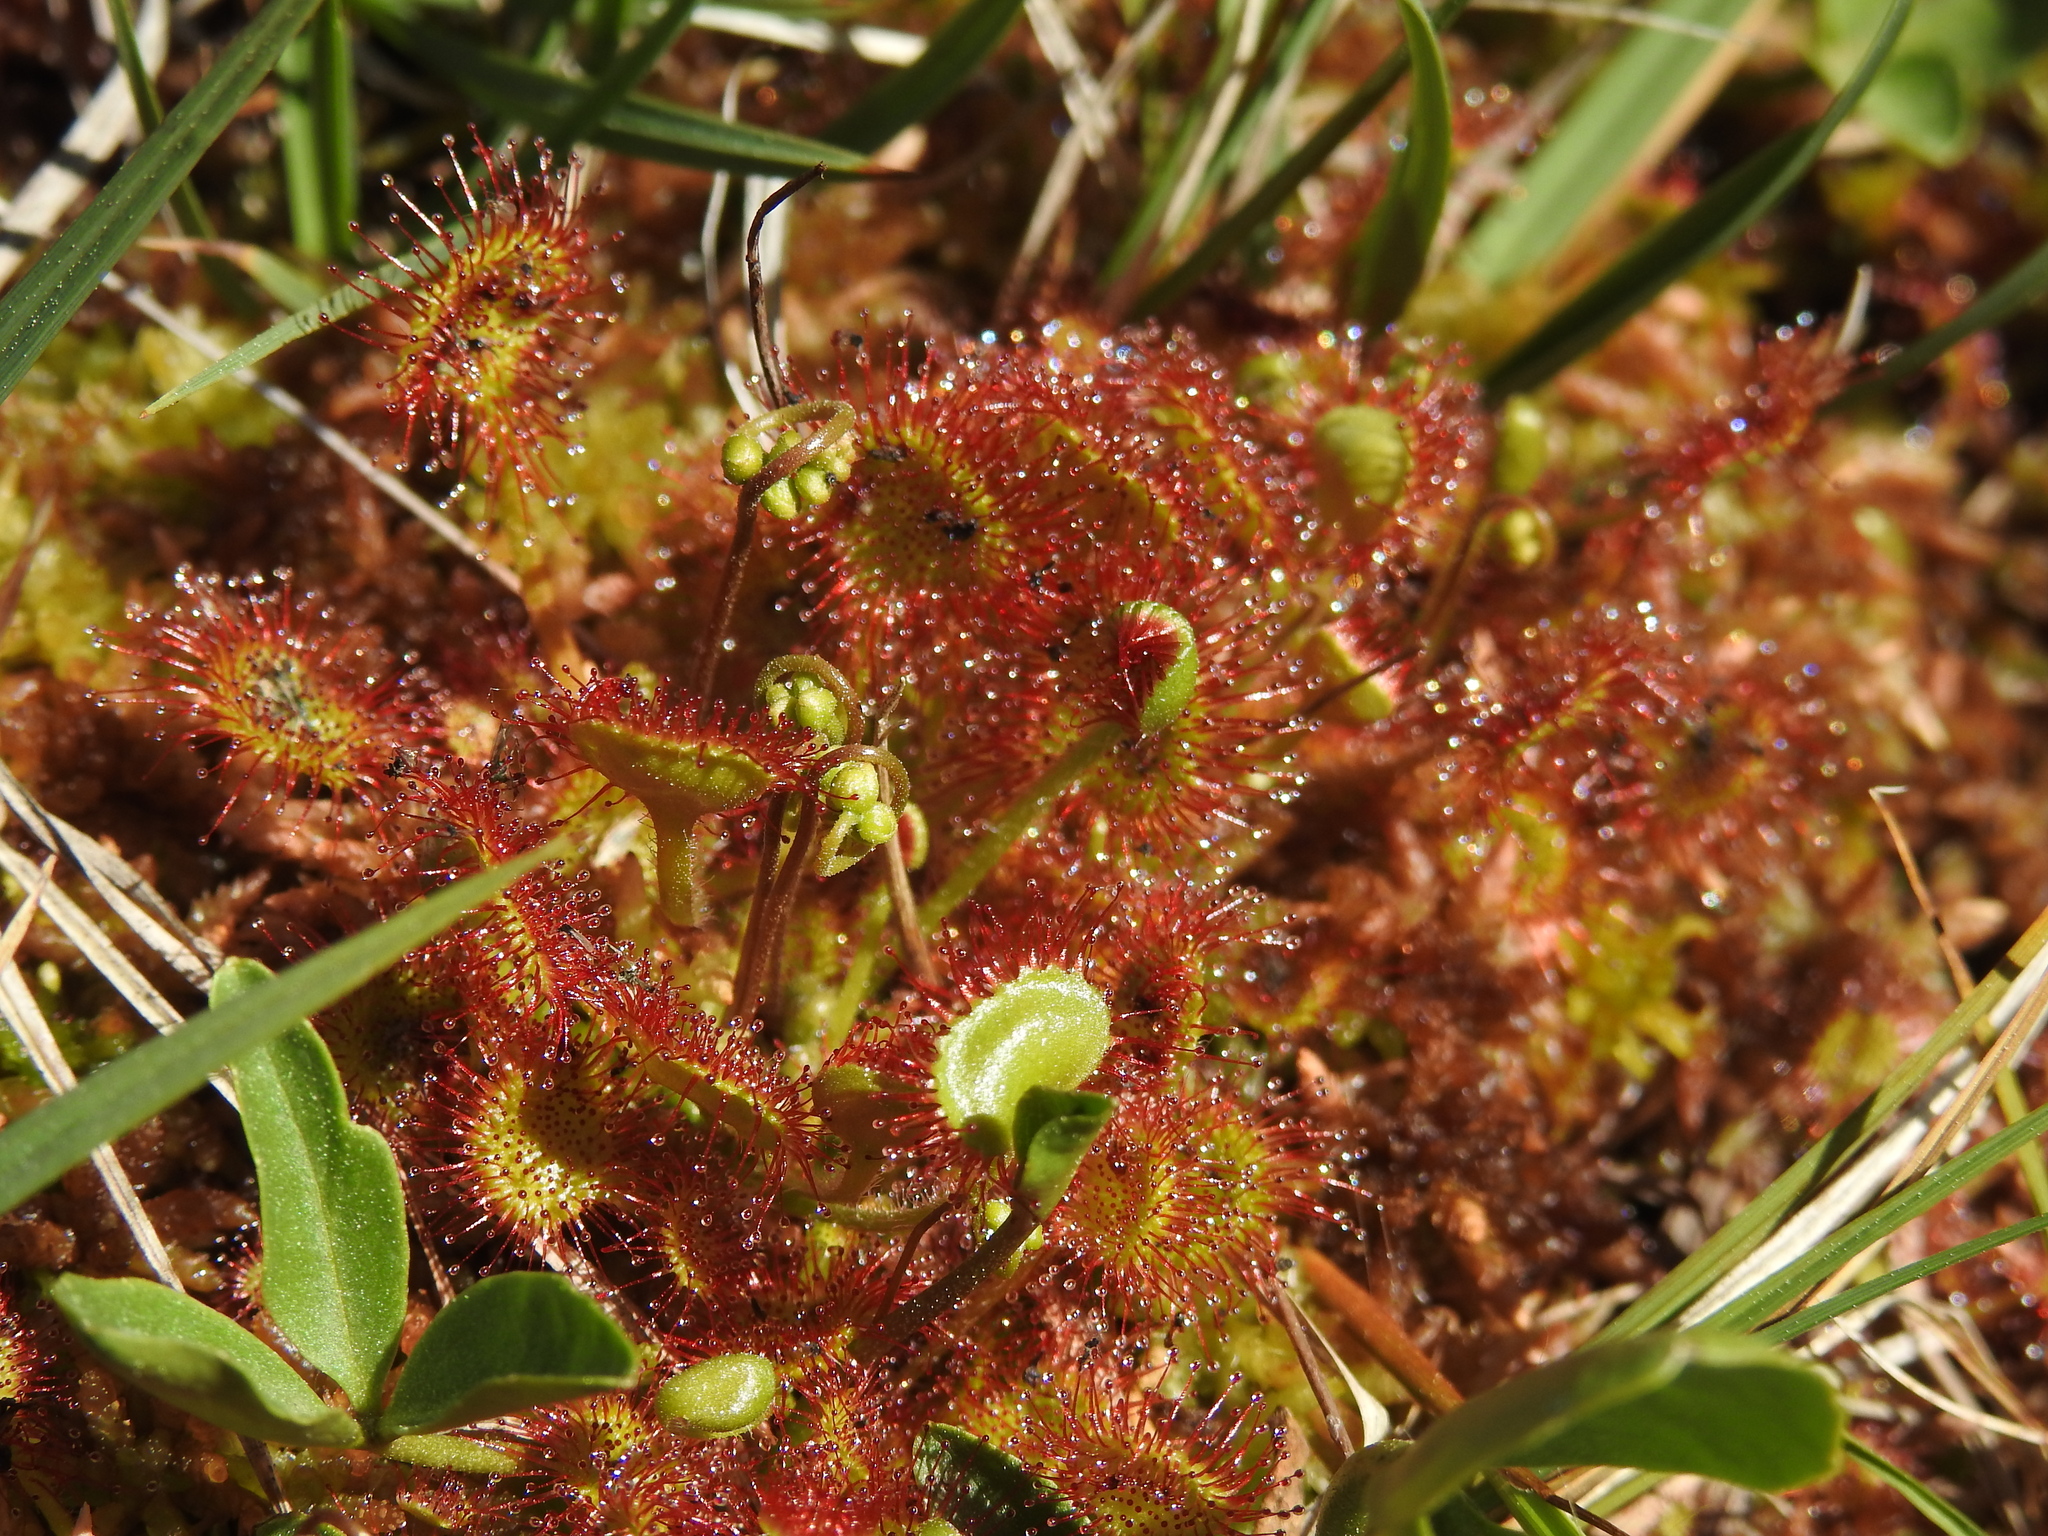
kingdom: Plantae
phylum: Tracheophyta
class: Magnoliopsida
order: Caryophyllales
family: Droseraceae
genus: Drosera
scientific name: Drosera rotundifolia
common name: Round-leaved sundew
